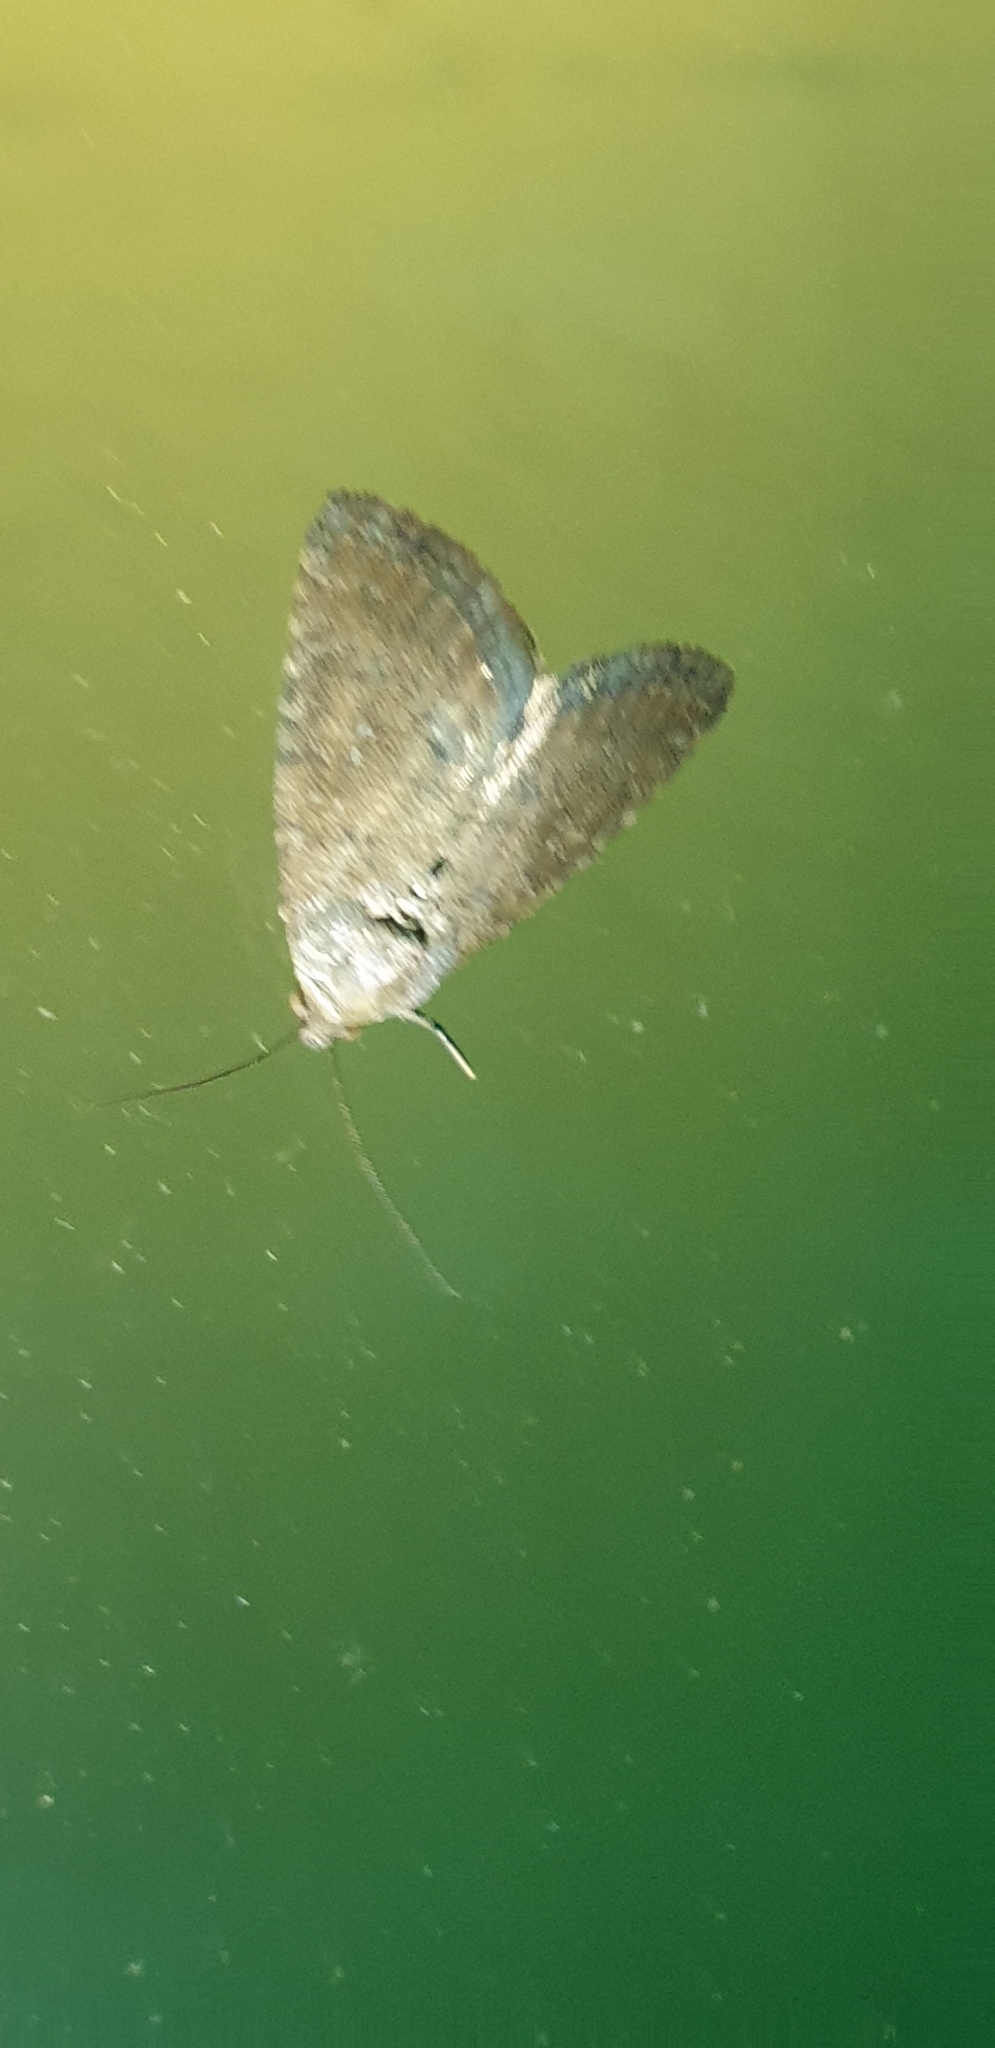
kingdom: Animalia
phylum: Arthropoda
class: Insecta
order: Lepidoptera
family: Noctuidae
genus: Amyna
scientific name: Amyna natalis
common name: Iiima moth
